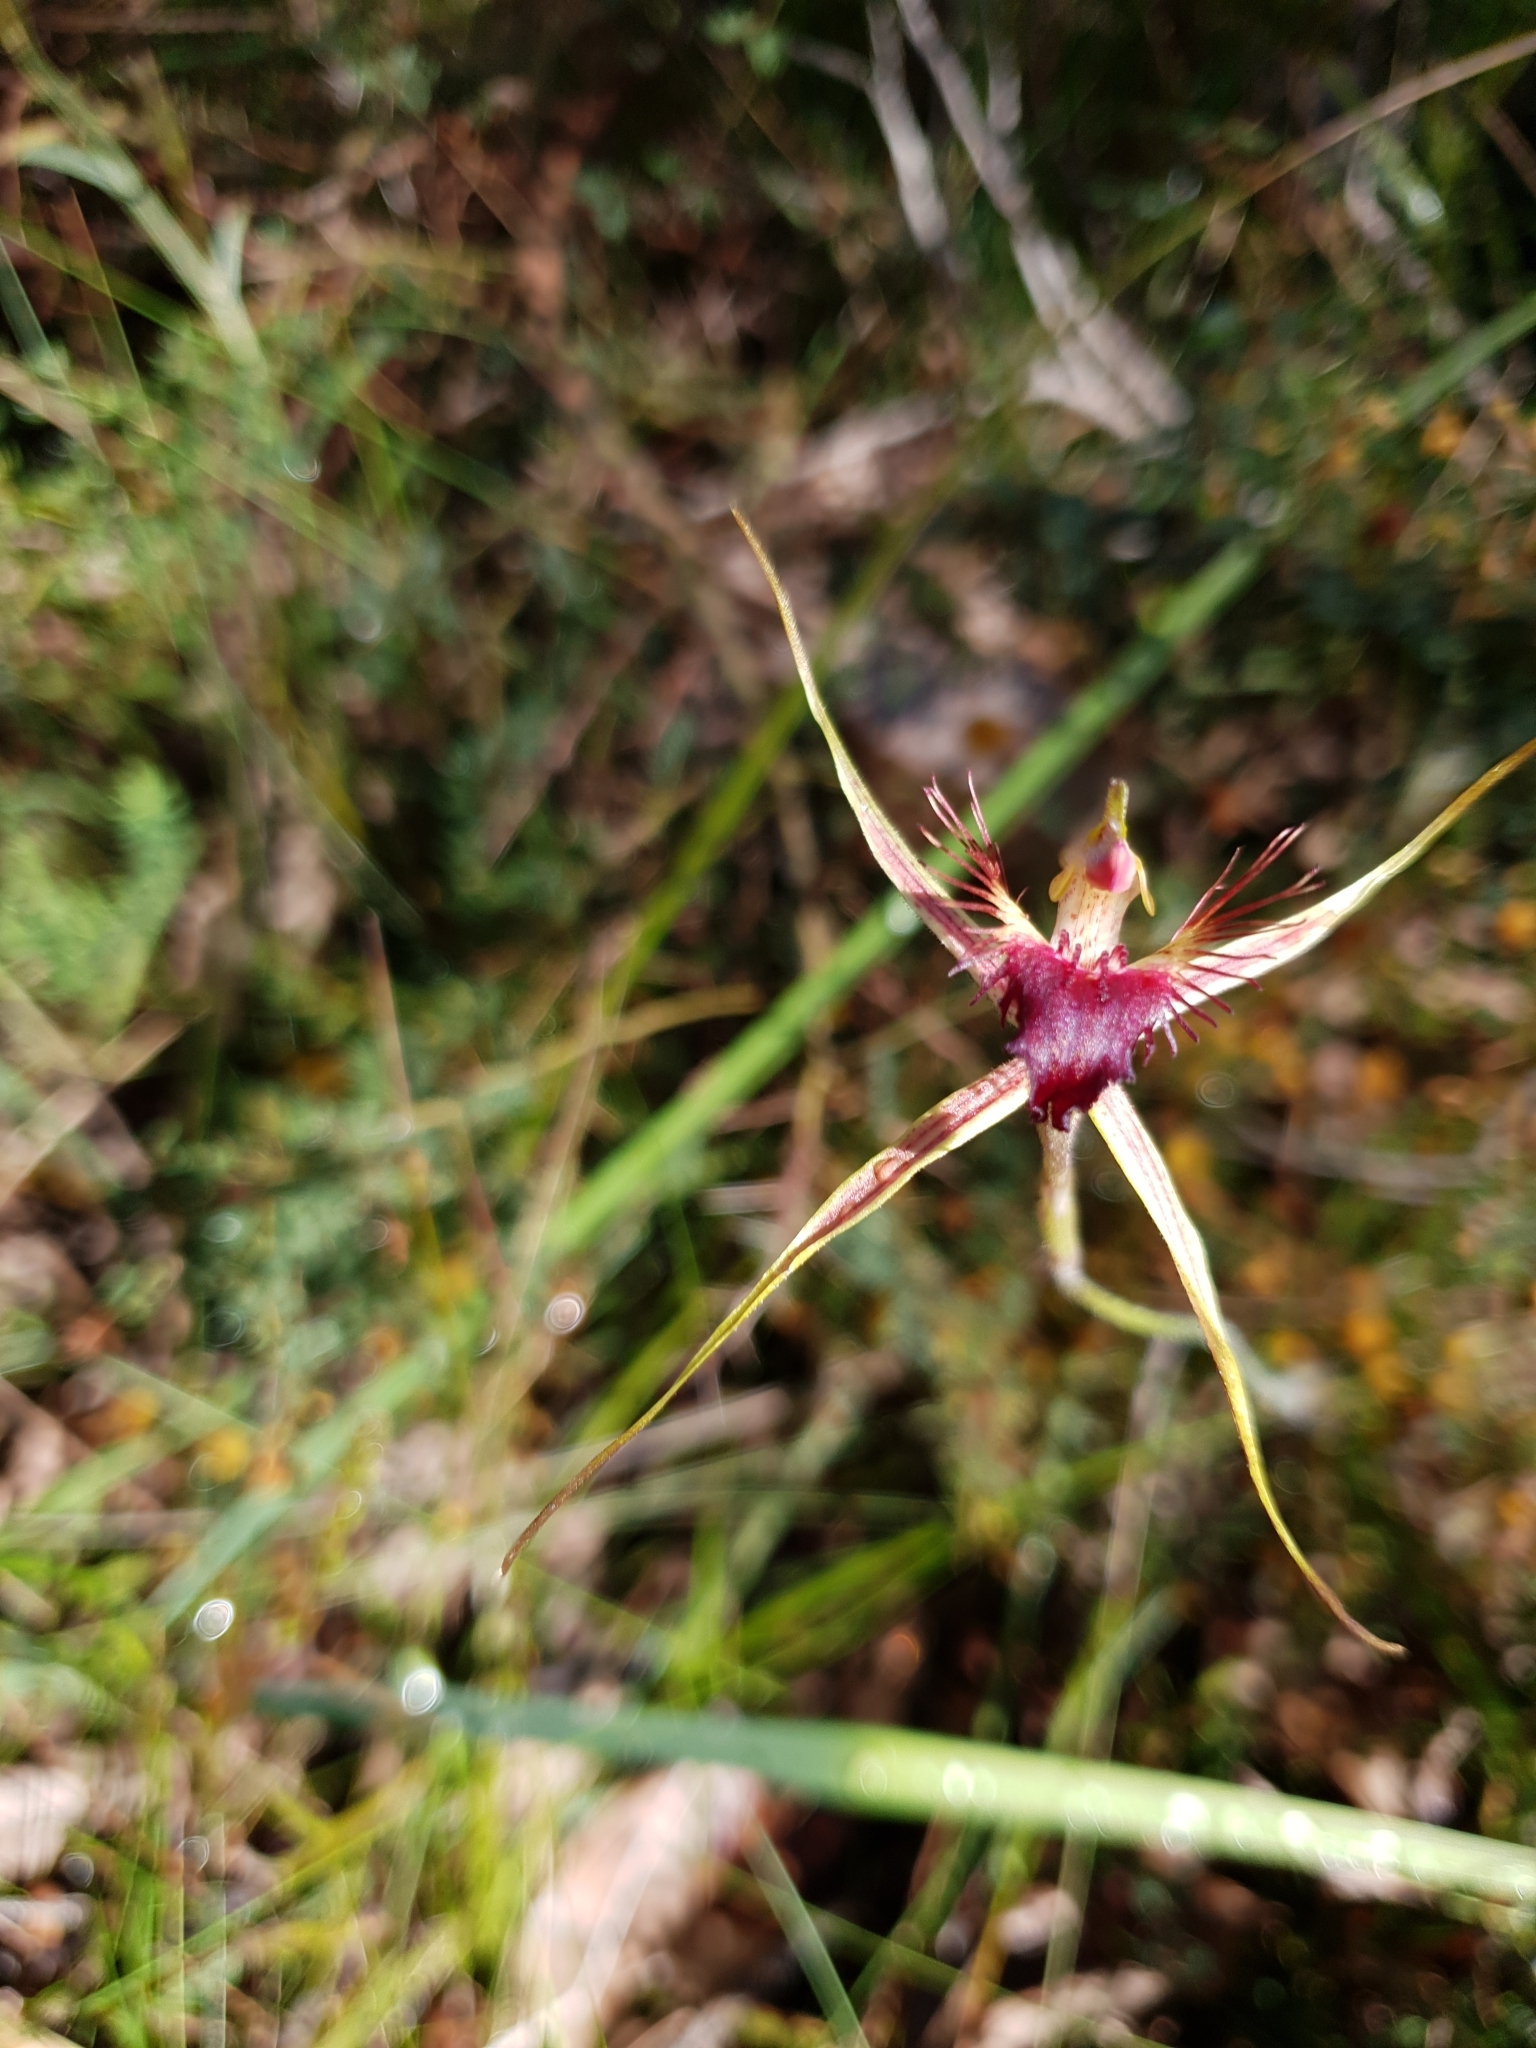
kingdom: Plantae
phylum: Tracheophyta
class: Liliopsida
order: Asparagales
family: Orchidaceae
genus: Caladenia
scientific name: Caladenia brownii
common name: Kari spider orchid
